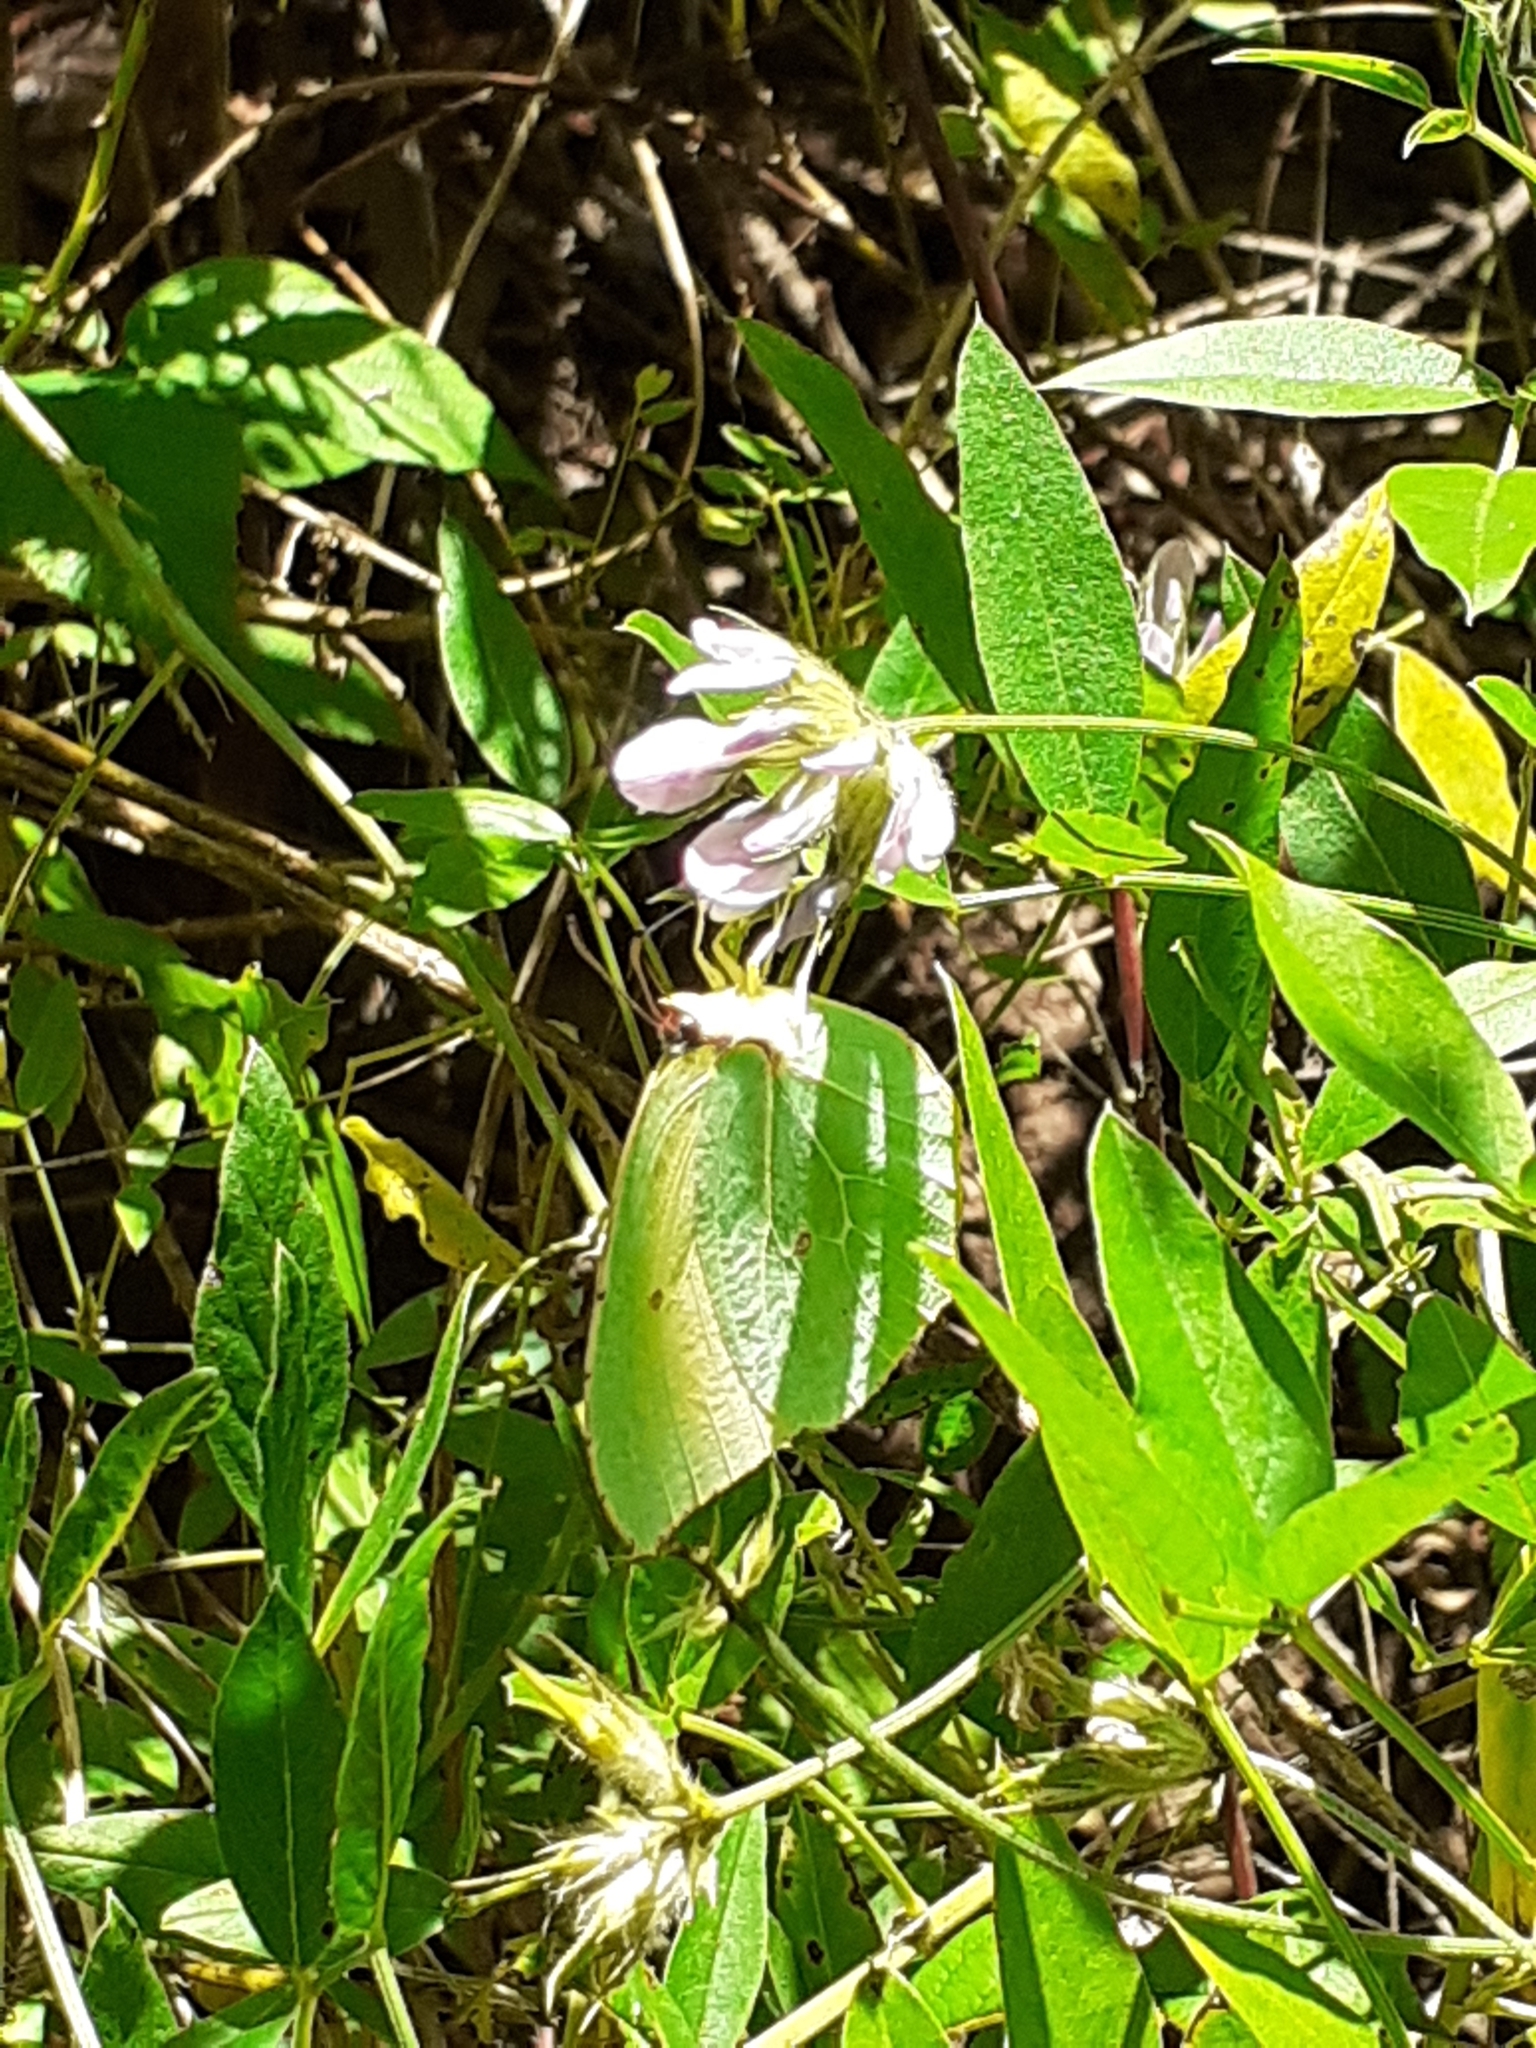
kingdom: Animalia
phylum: Arthropoda
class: Insecta
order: Lepidoptera
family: Pieridae
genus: Gonepteryx
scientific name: Gonepteryx cleobule
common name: Canary brimstone
